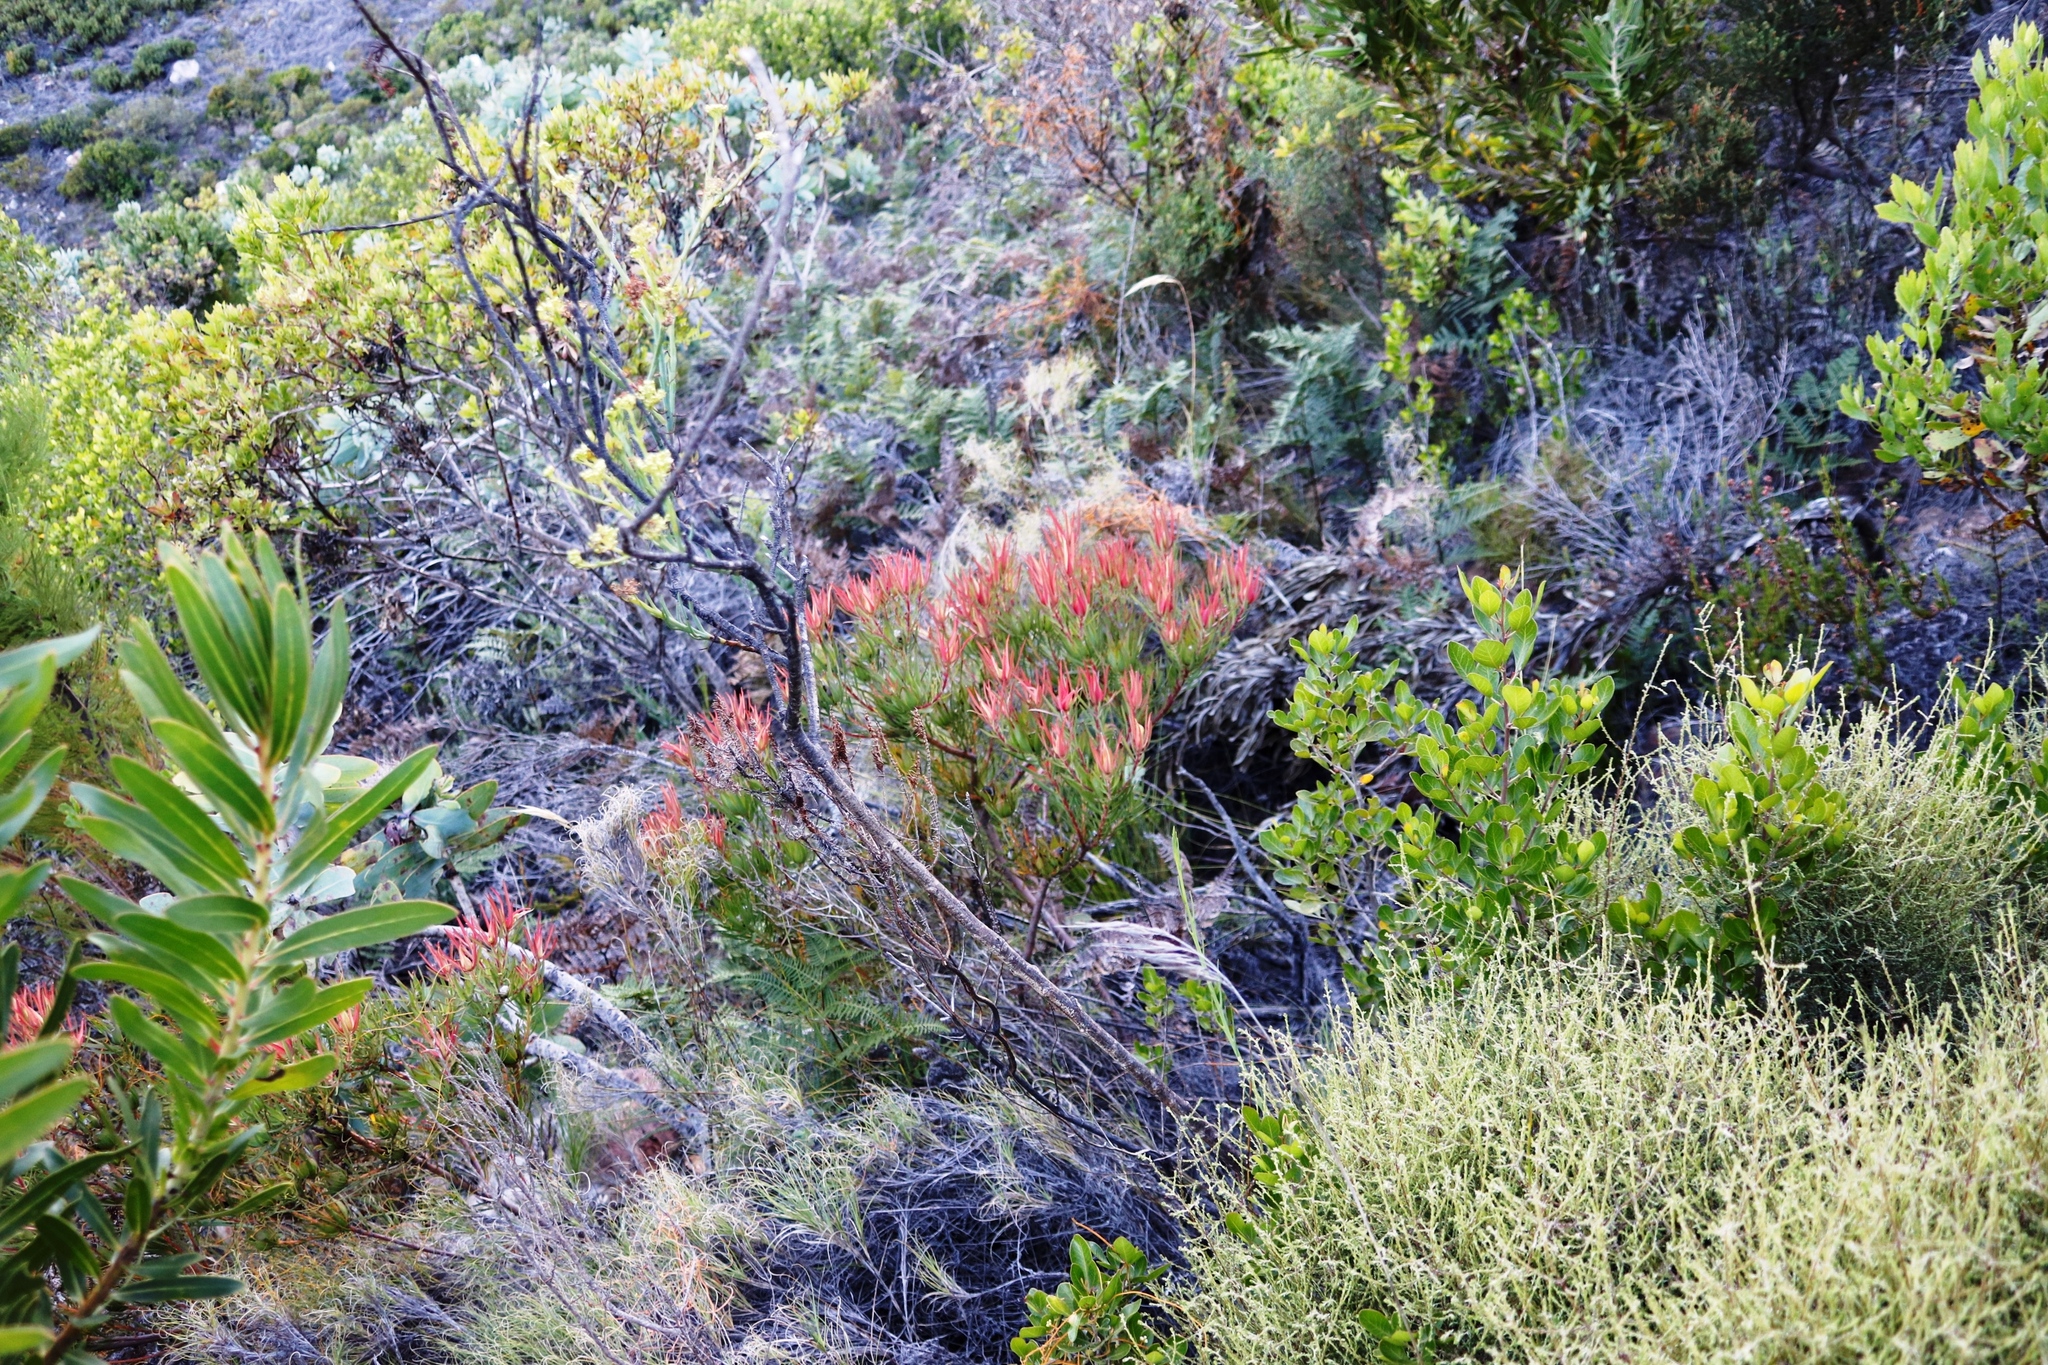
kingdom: Plantae
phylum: Tracheophyta
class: Magnoliopsida
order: Proteales
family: Proteaceae
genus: Leucadendron
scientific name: Leucadendron salignum
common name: Common sunshine conebush
